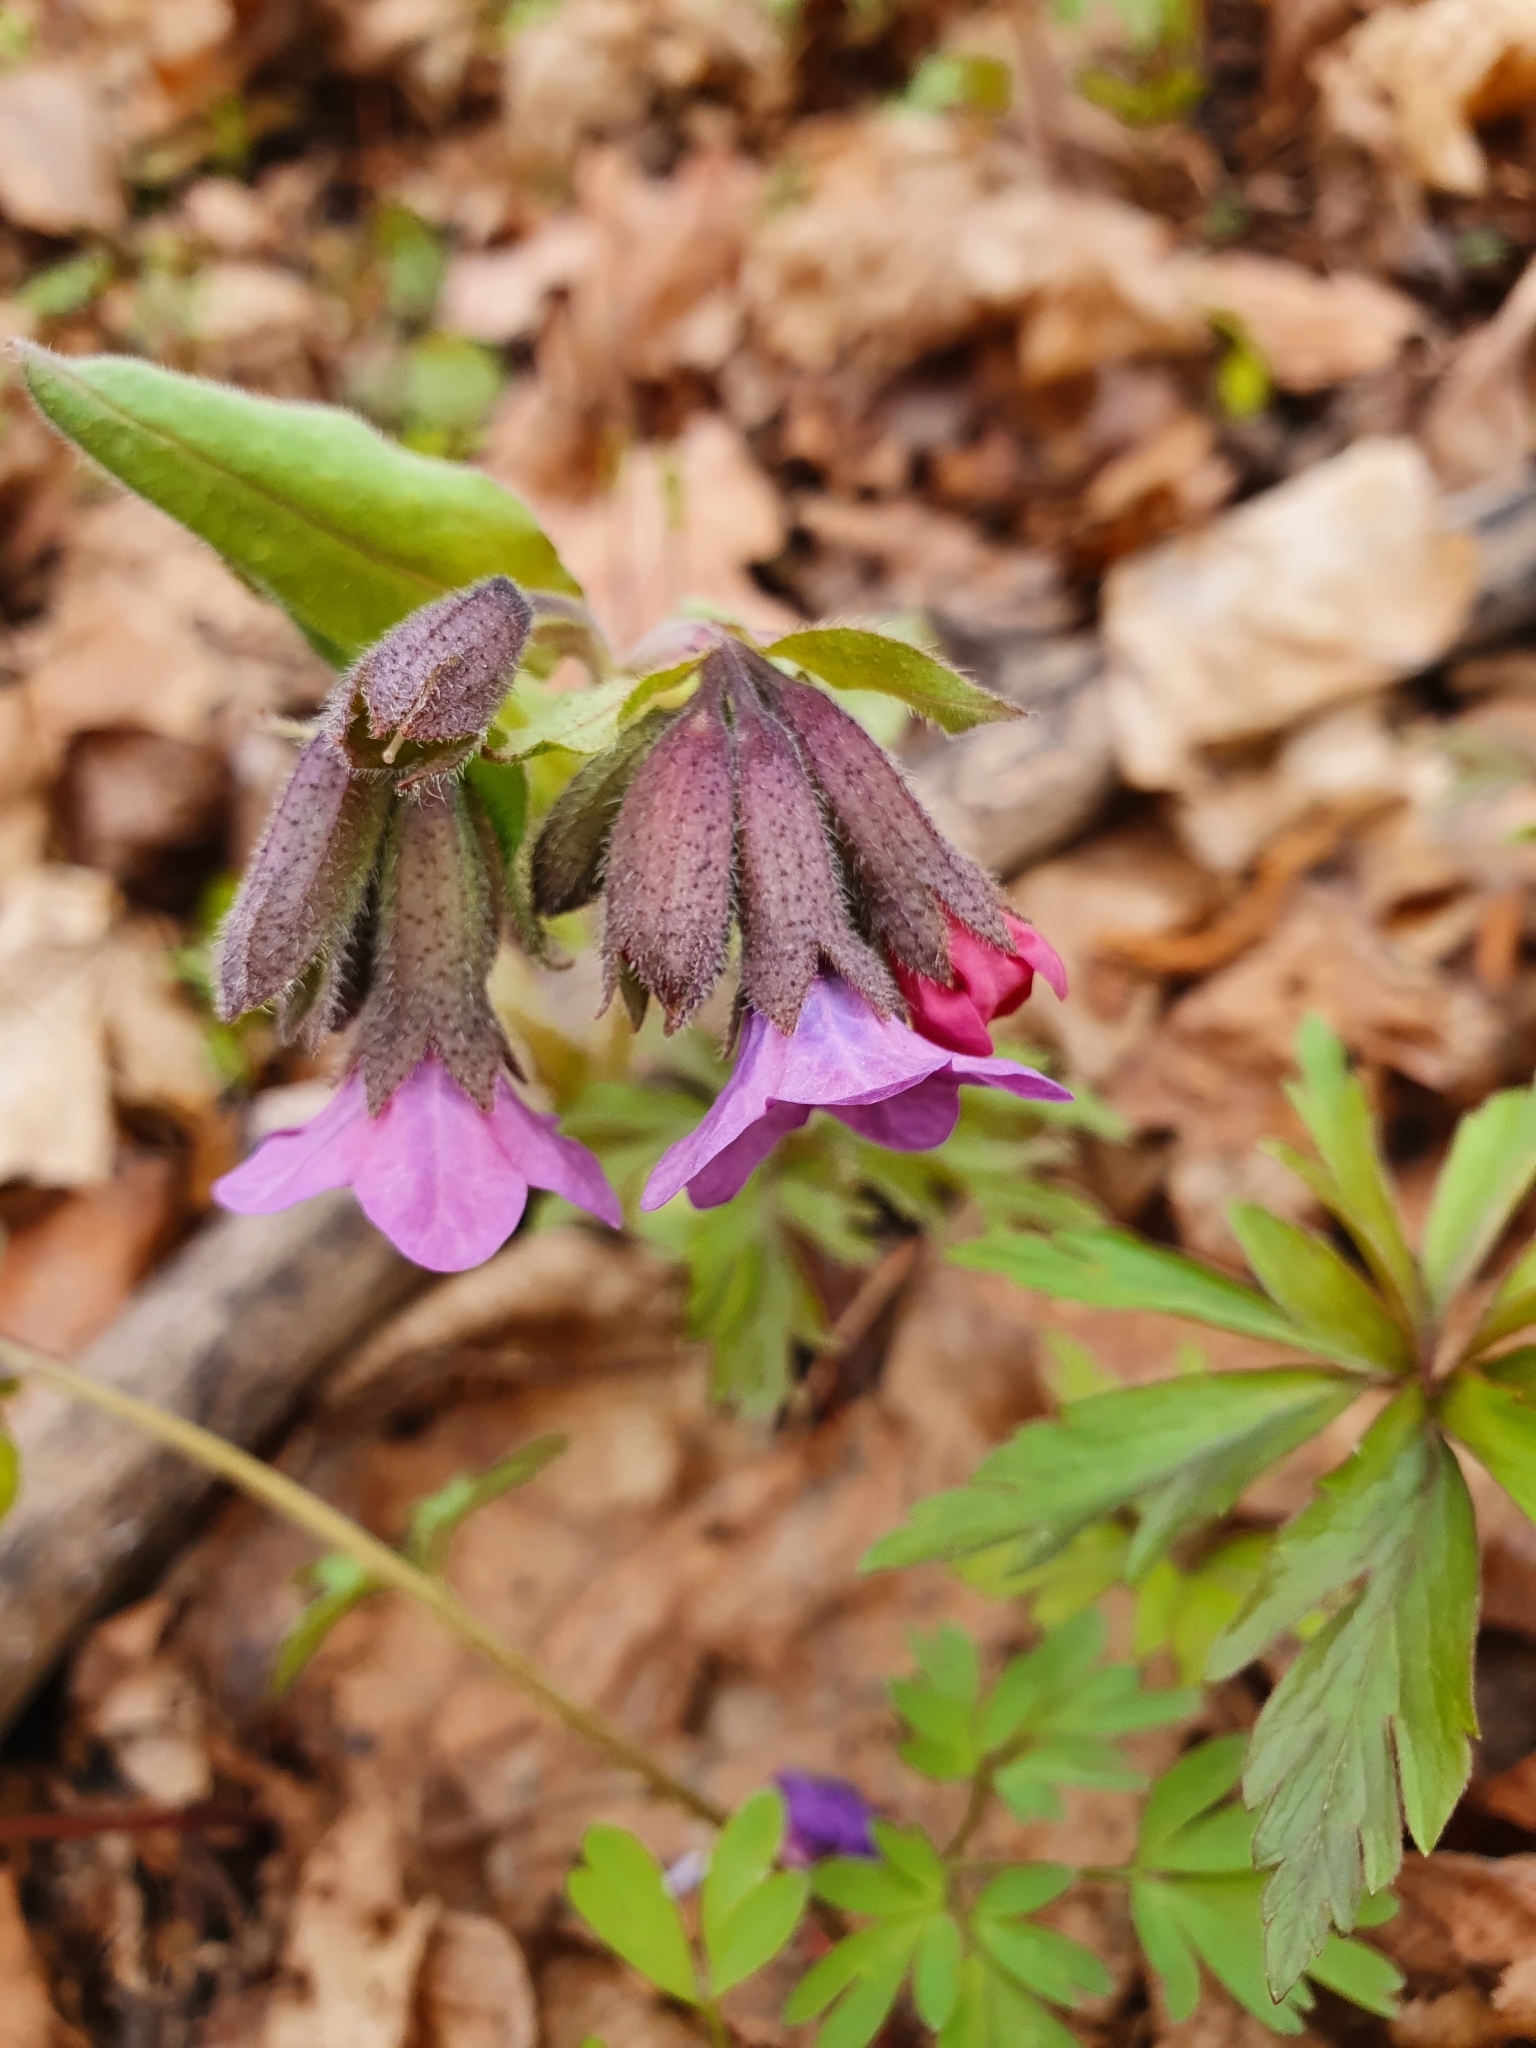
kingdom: Plantae
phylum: Tracheophyta
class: Magnoliopsida
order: Boraginales
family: Boraginaceae
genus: Pulmonaria
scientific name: Pulmonaria obscura
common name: Suffolk lungwort
